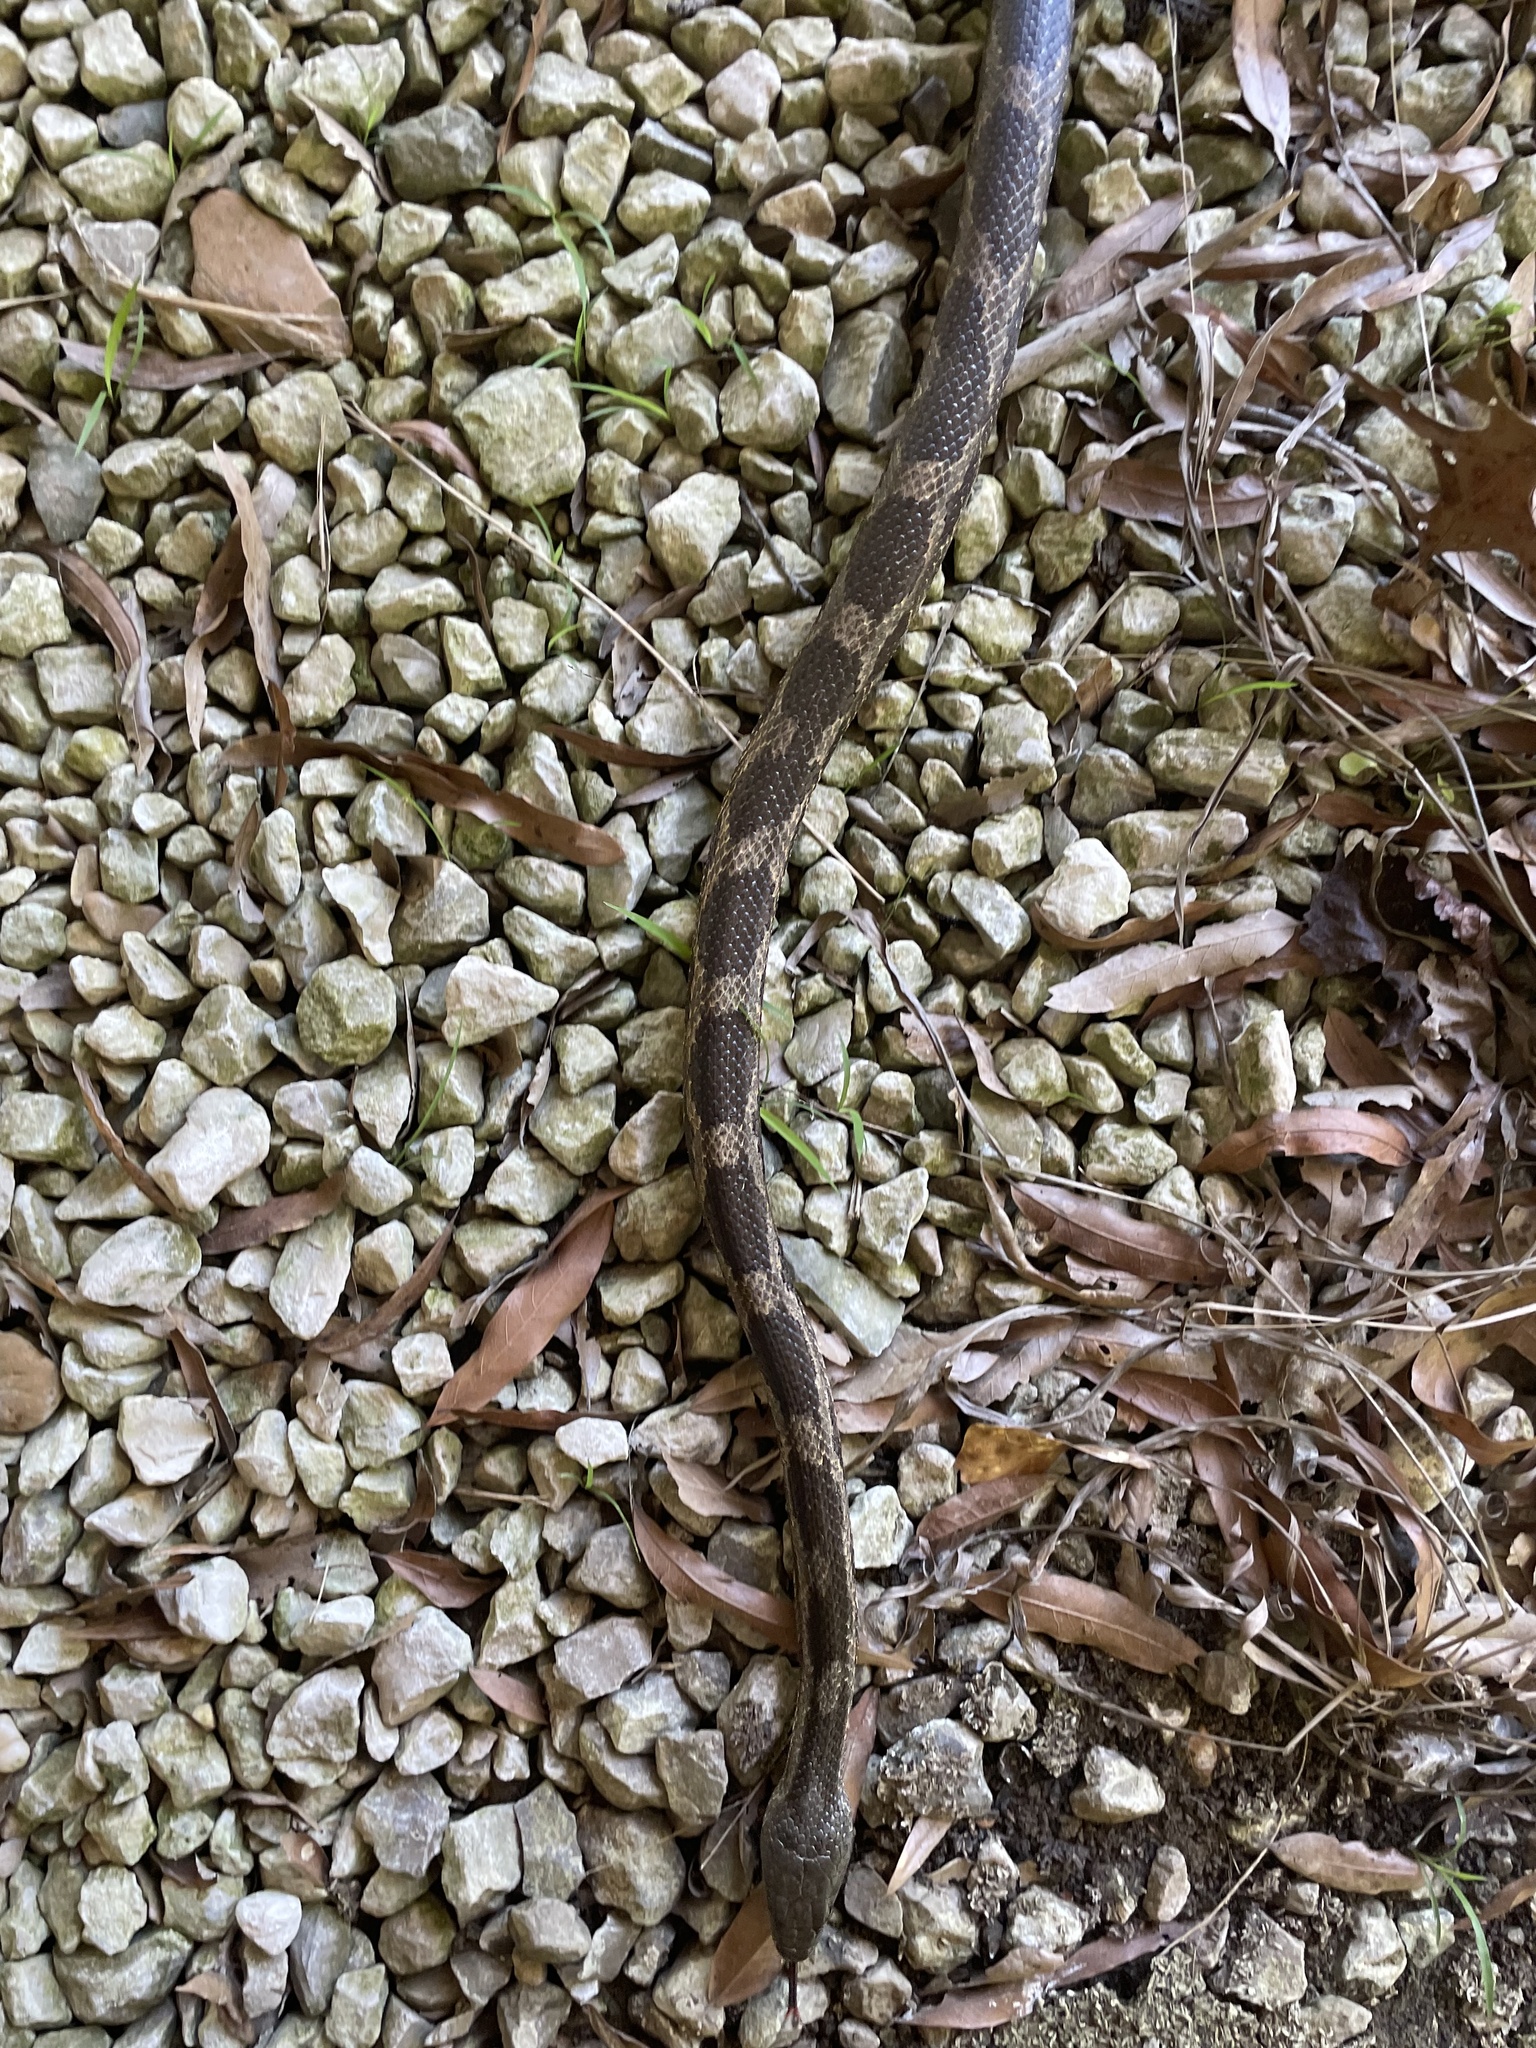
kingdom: Animalia
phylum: Chordata
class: Squamata
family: Colubridae
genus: Pantherophis
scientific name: Pantherophis obsoletus
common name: Black rat snake
